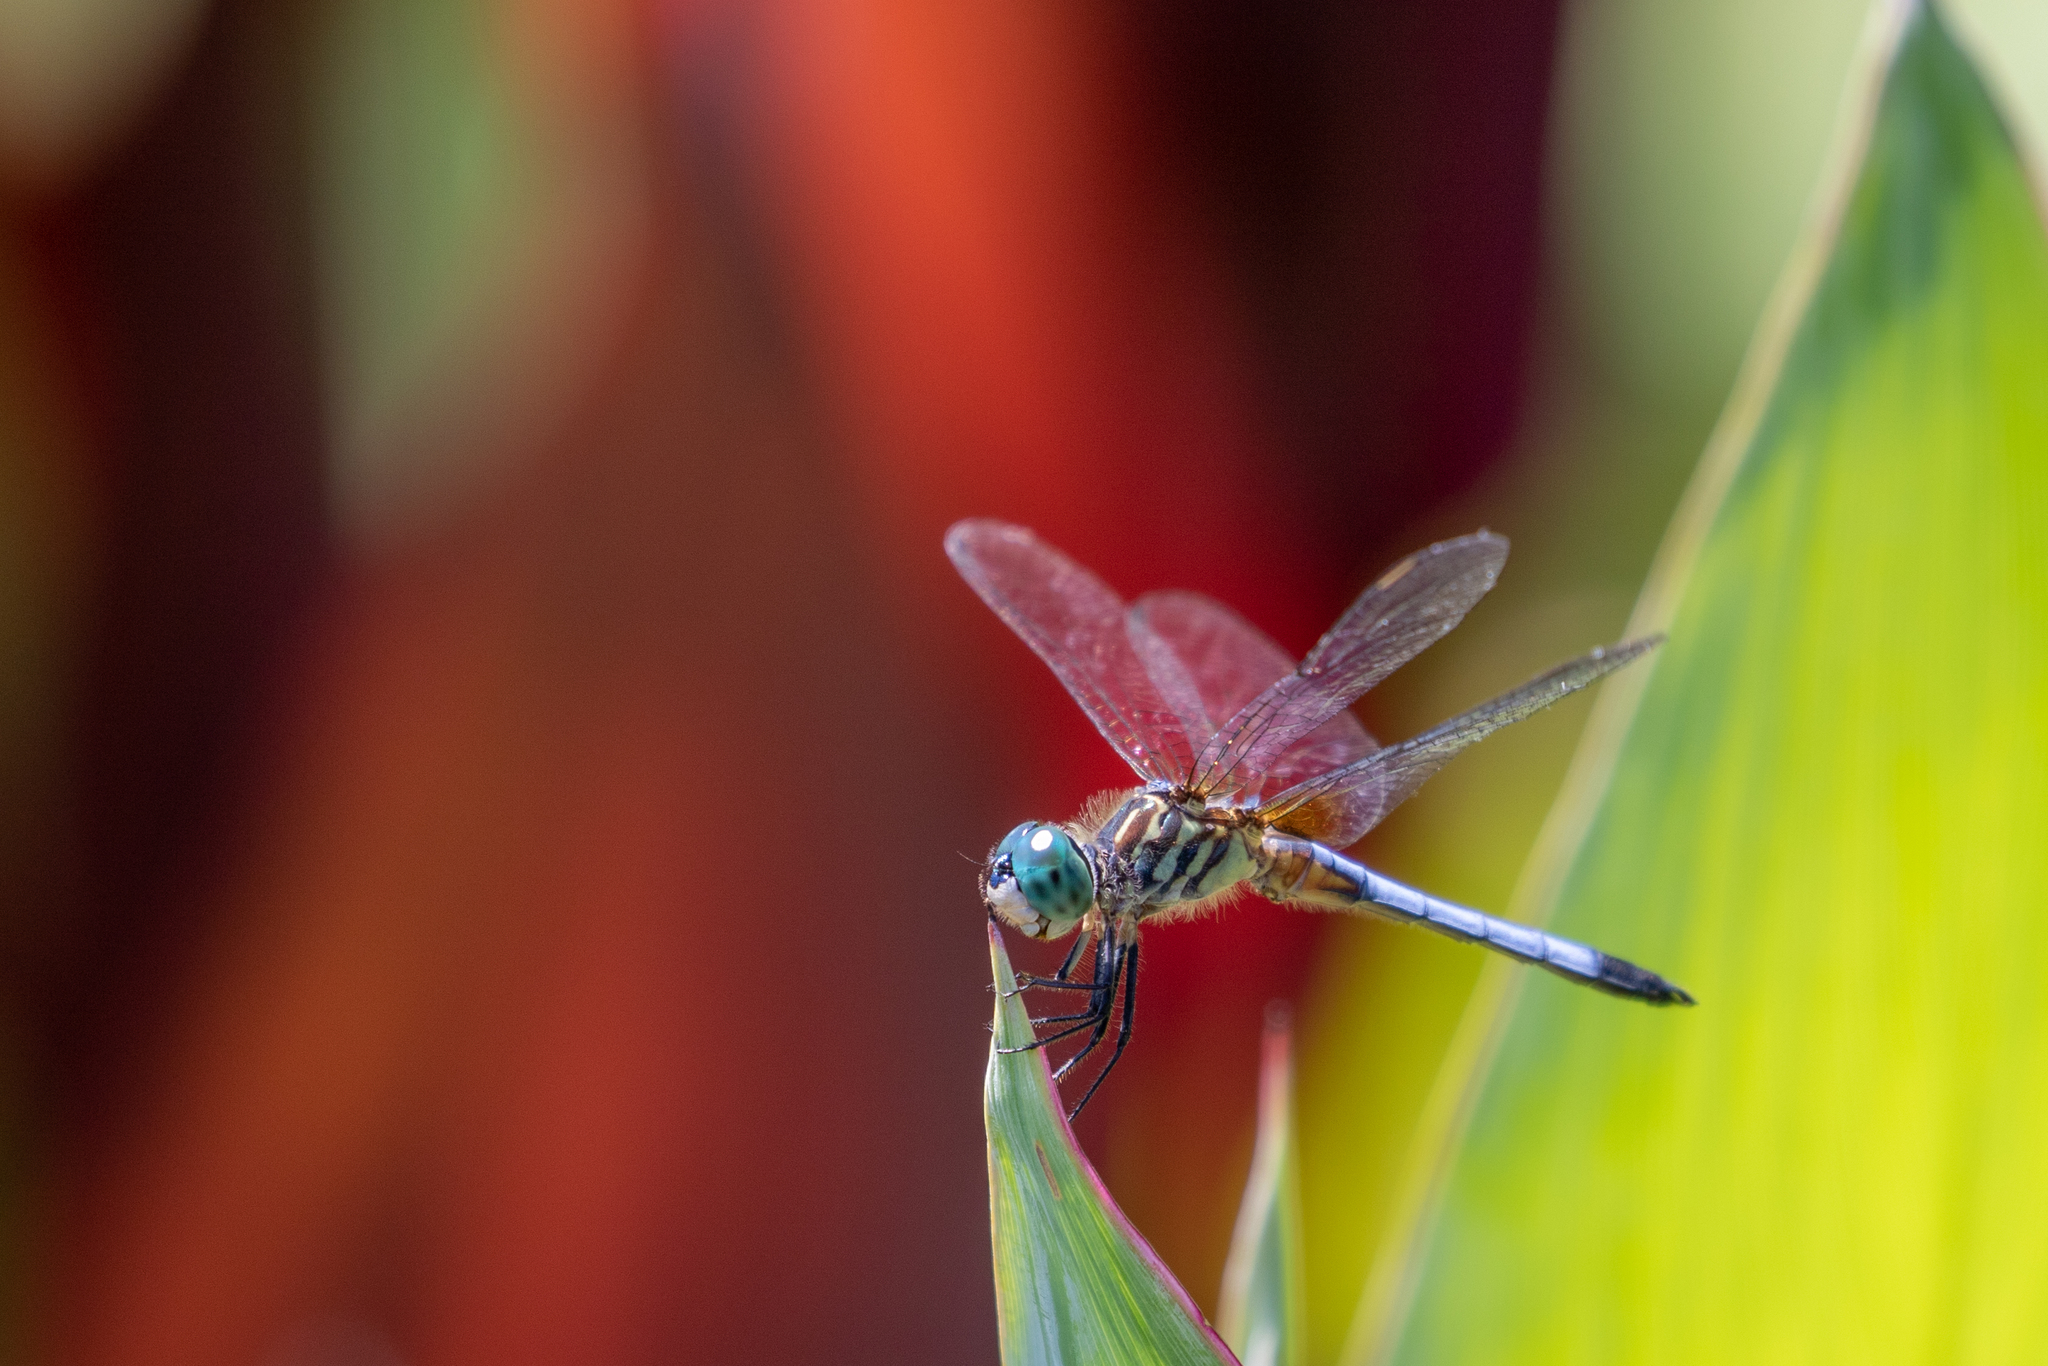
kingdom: Animalia
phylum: Arthropoda
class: Insecta
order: Odonata
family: Libellulidae
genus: Pachydiplax
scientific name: Pachydiplax longipennis
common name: Blue dasher
